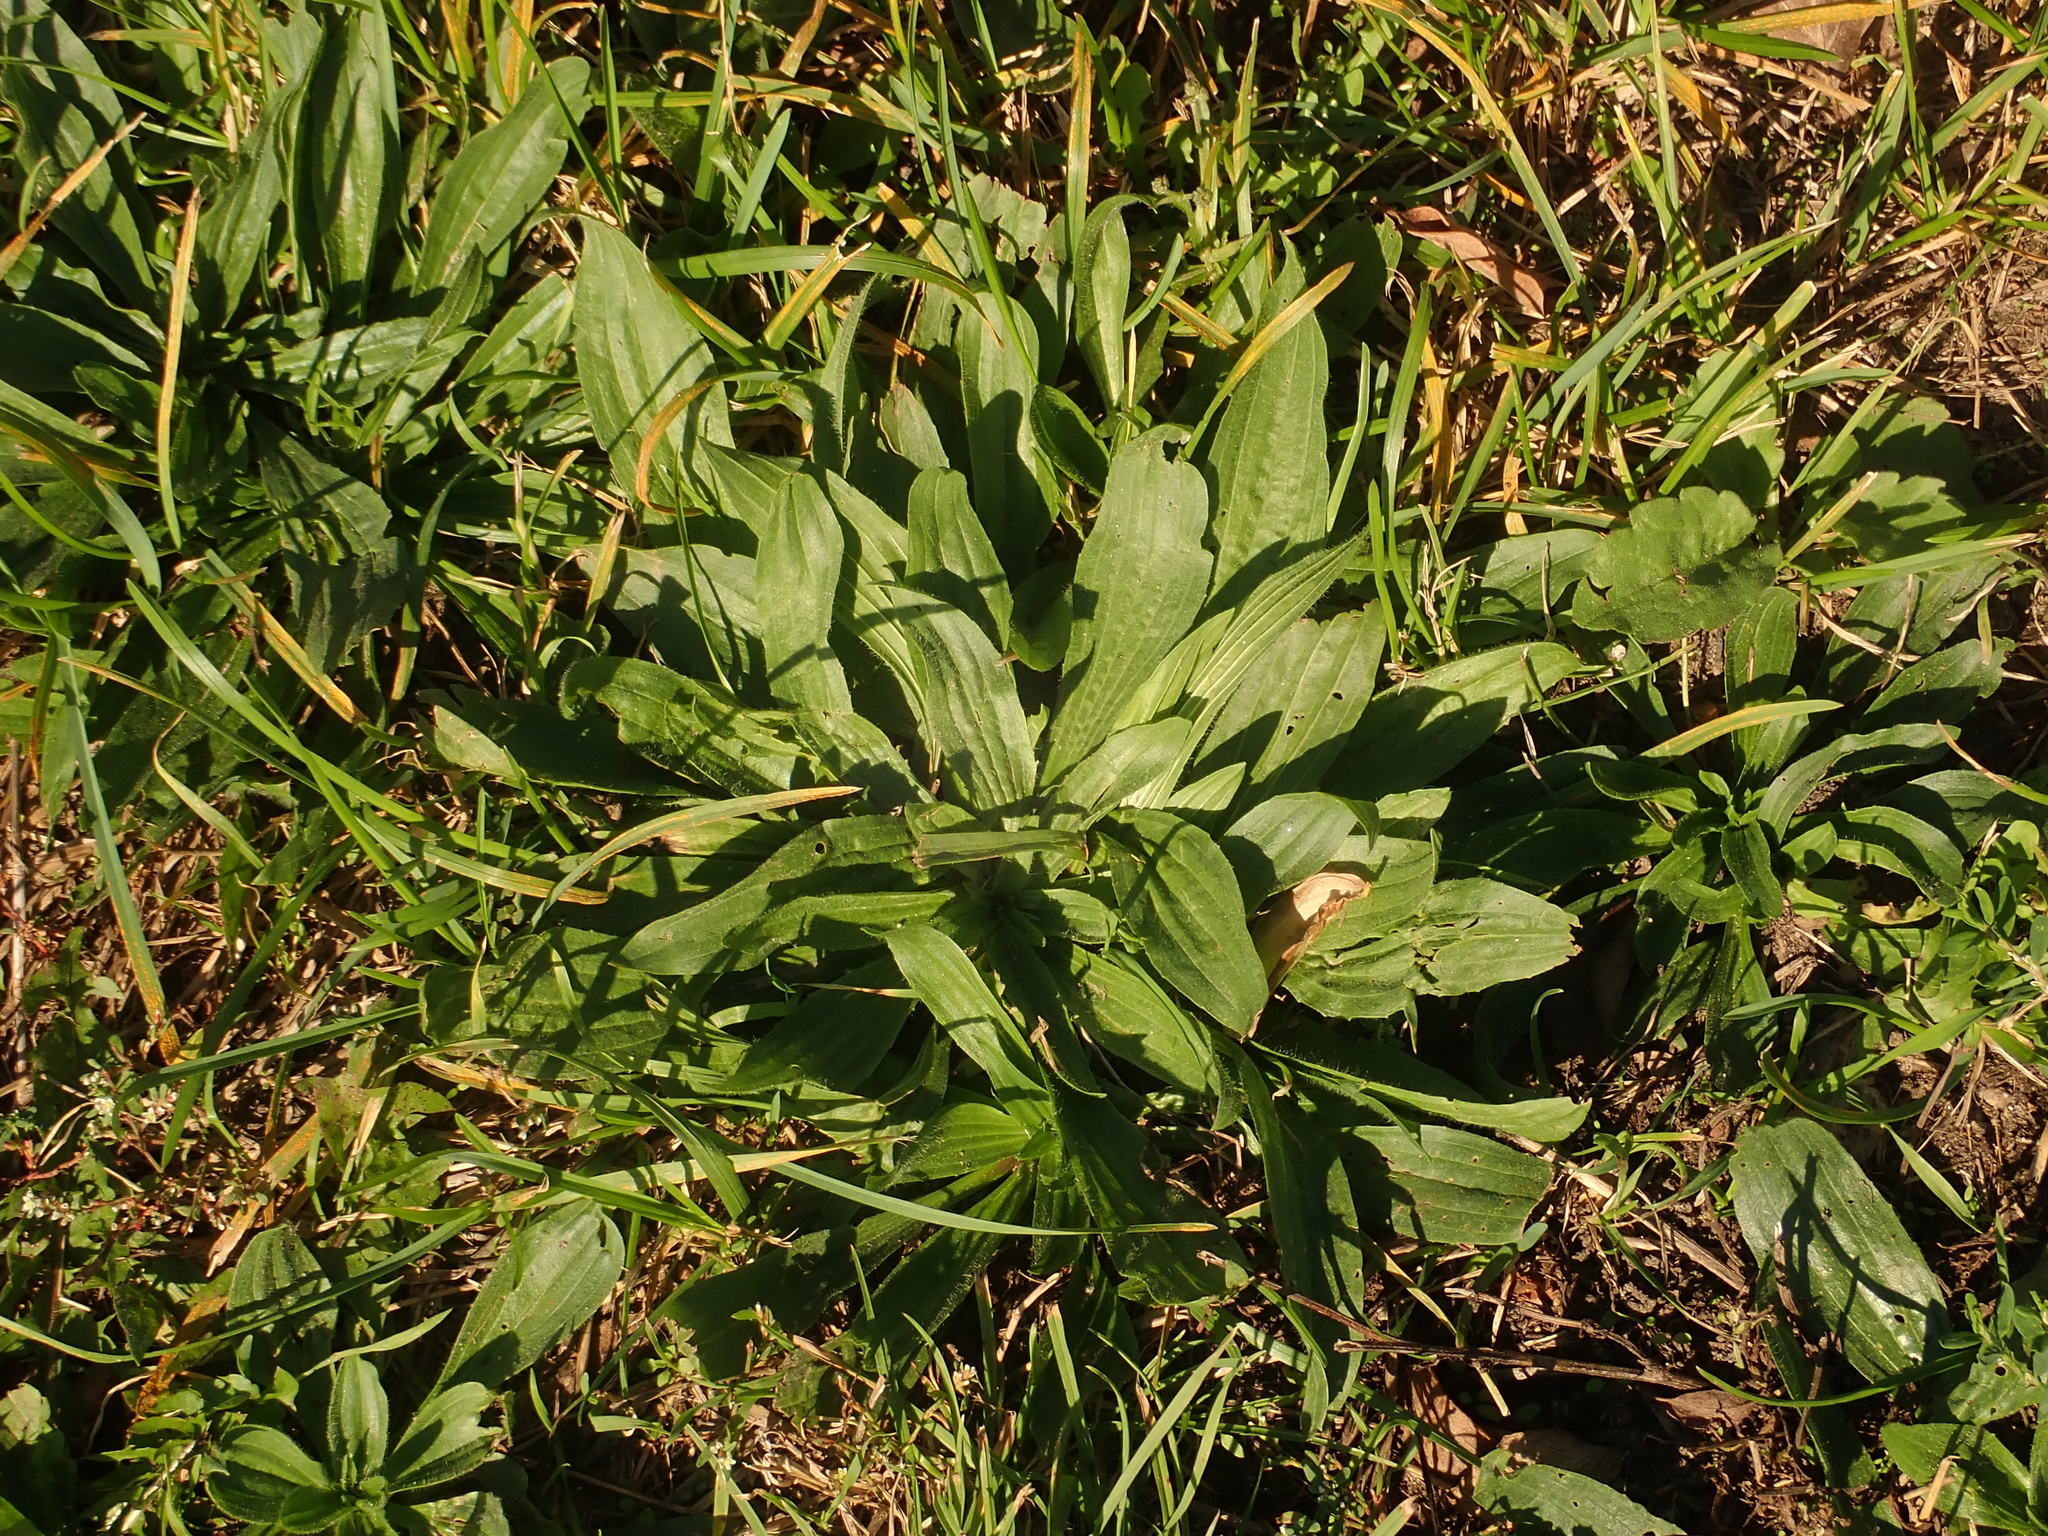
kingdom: Plantae
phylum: Tracheophyta
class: Magnoliopsida
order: Lamiales
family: Plantaginaceae
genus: Plantago
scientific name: Plantago lanceolata
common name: Ribwort plantain
